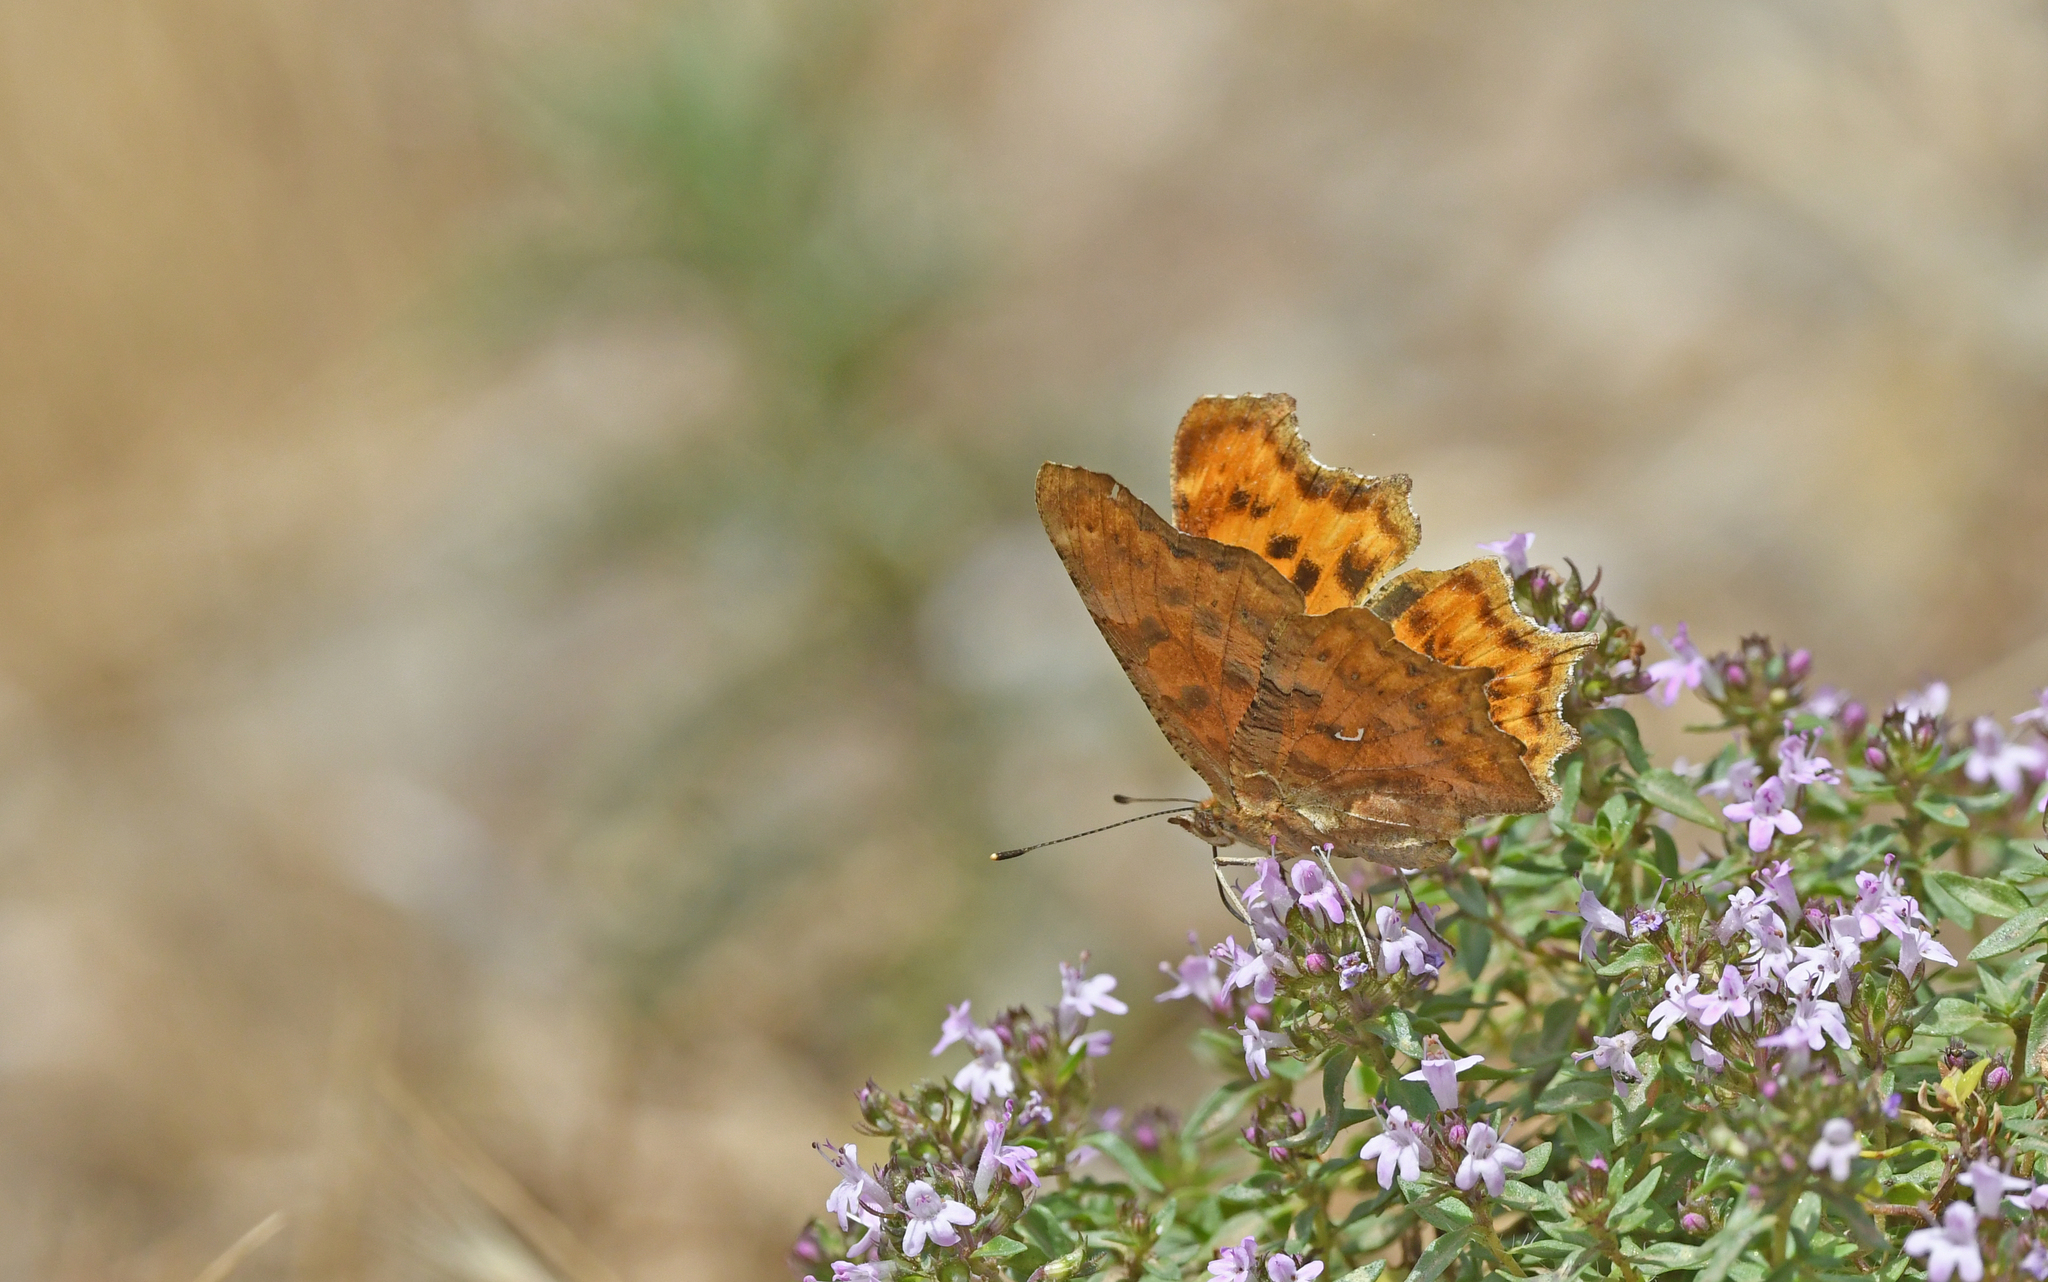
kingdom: Animalia
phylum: Arthropoda
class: Insecta
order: Lepidoptera
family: Nymphalidae
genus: Polygonia
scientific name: Polygonia c-album
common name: Comma
